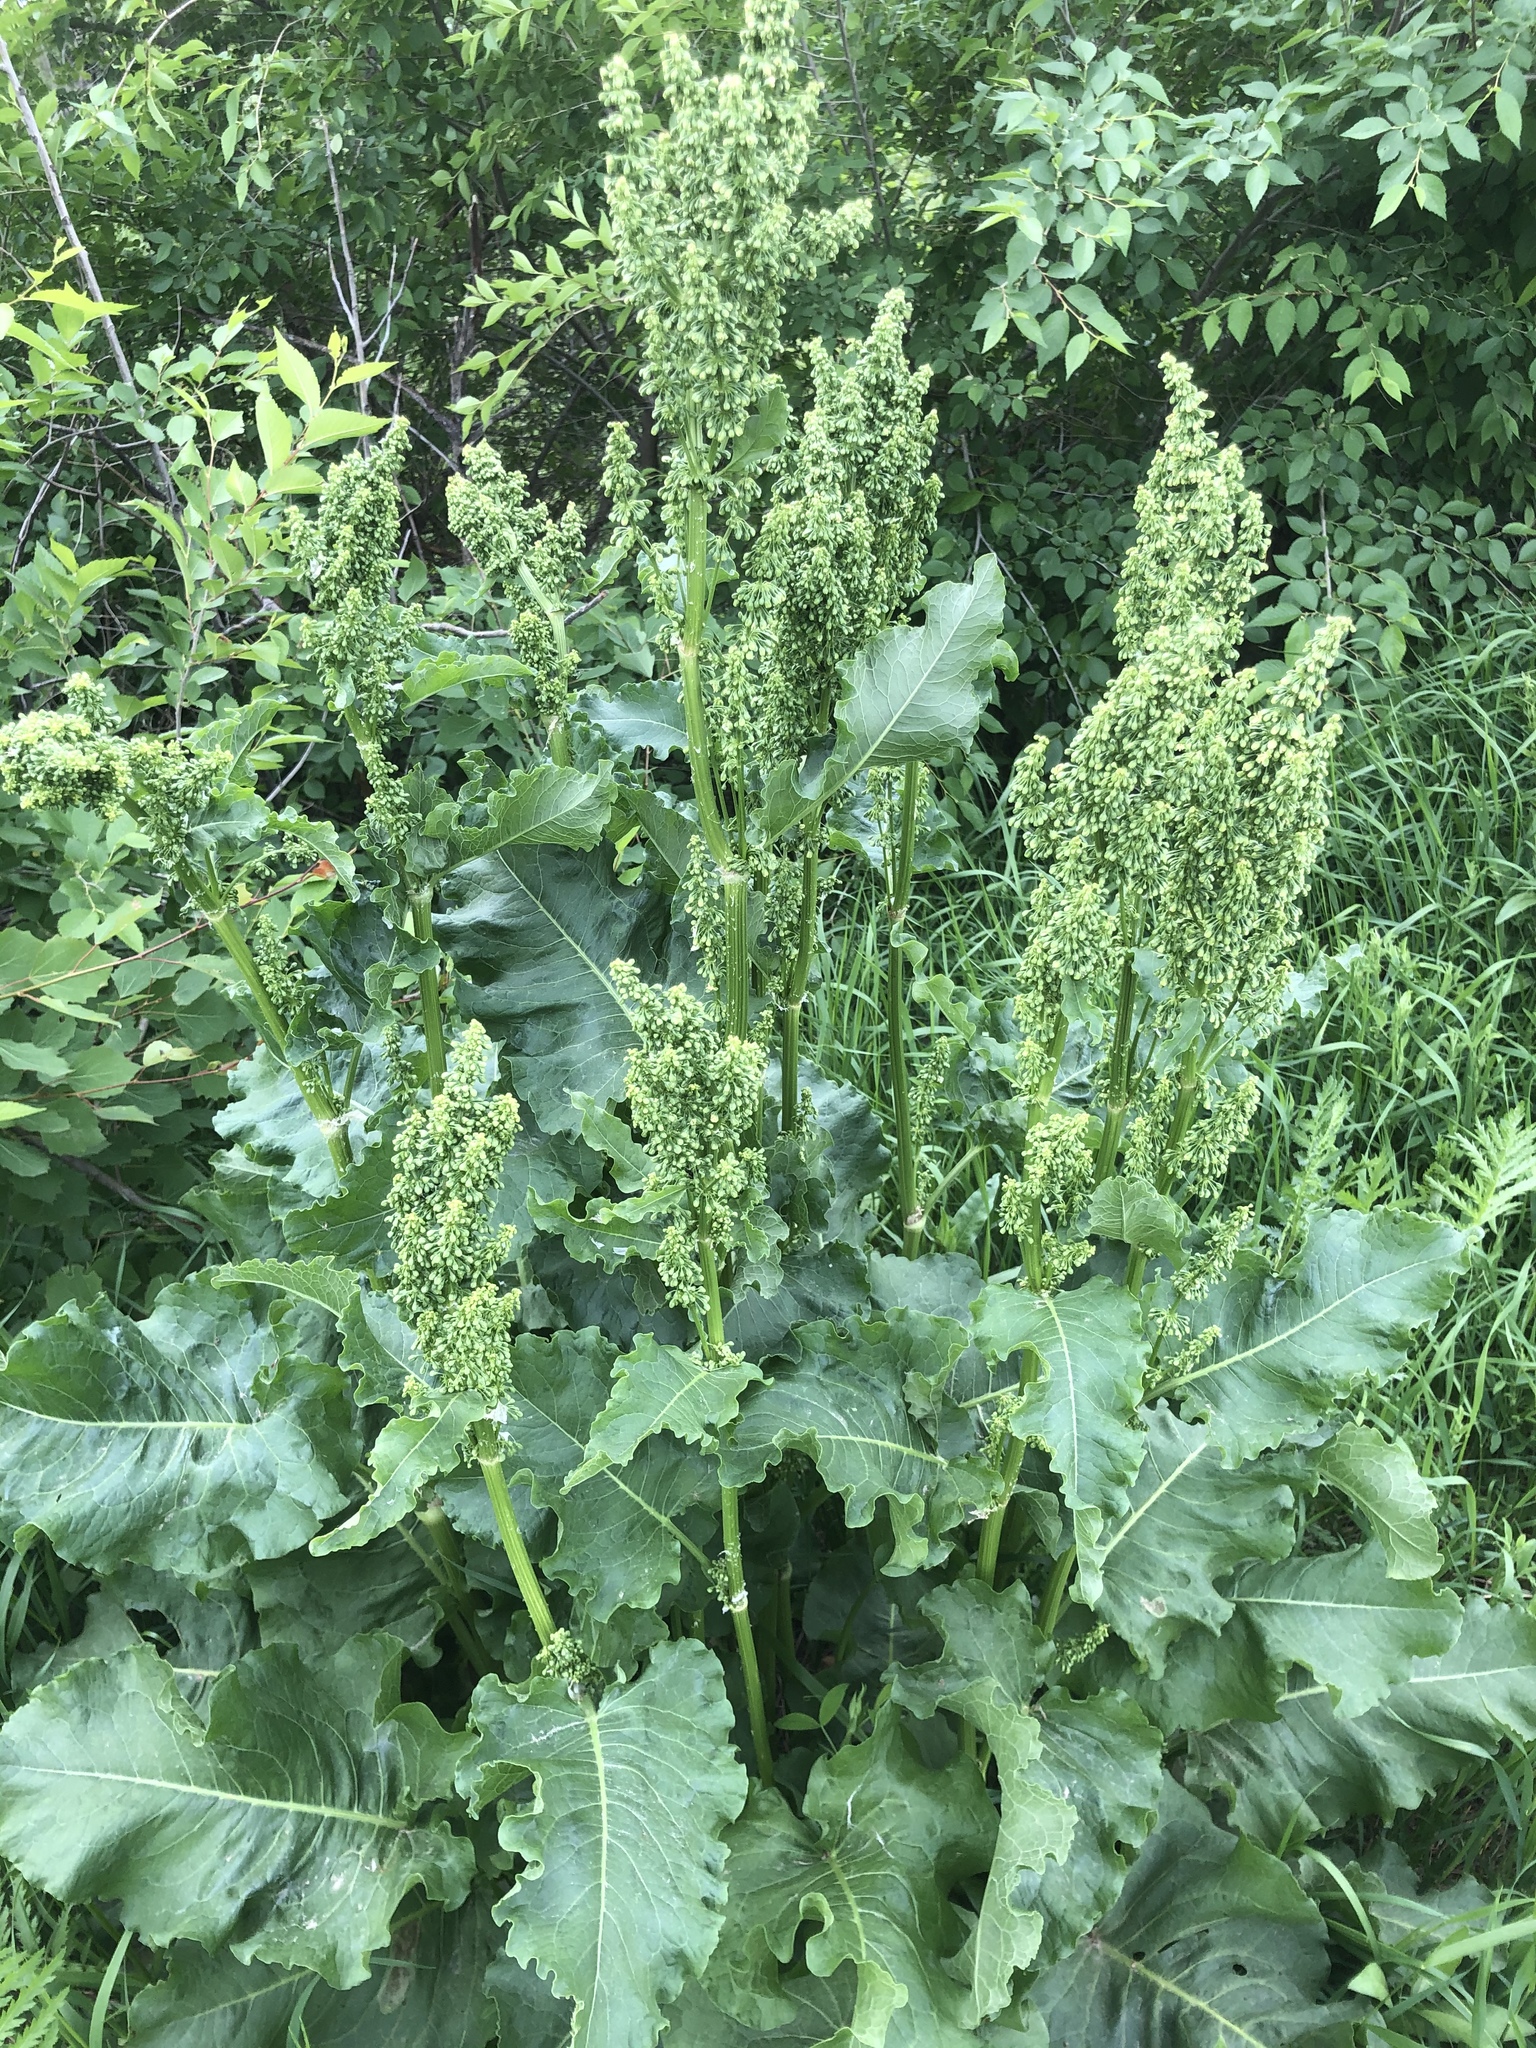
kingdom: Plantae
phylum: Tracheophyta
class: Magnoliopsida
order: Caryophyllales
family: Polygonaceae
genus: Rumex
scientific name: Rumex confertus
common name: Russian dock
